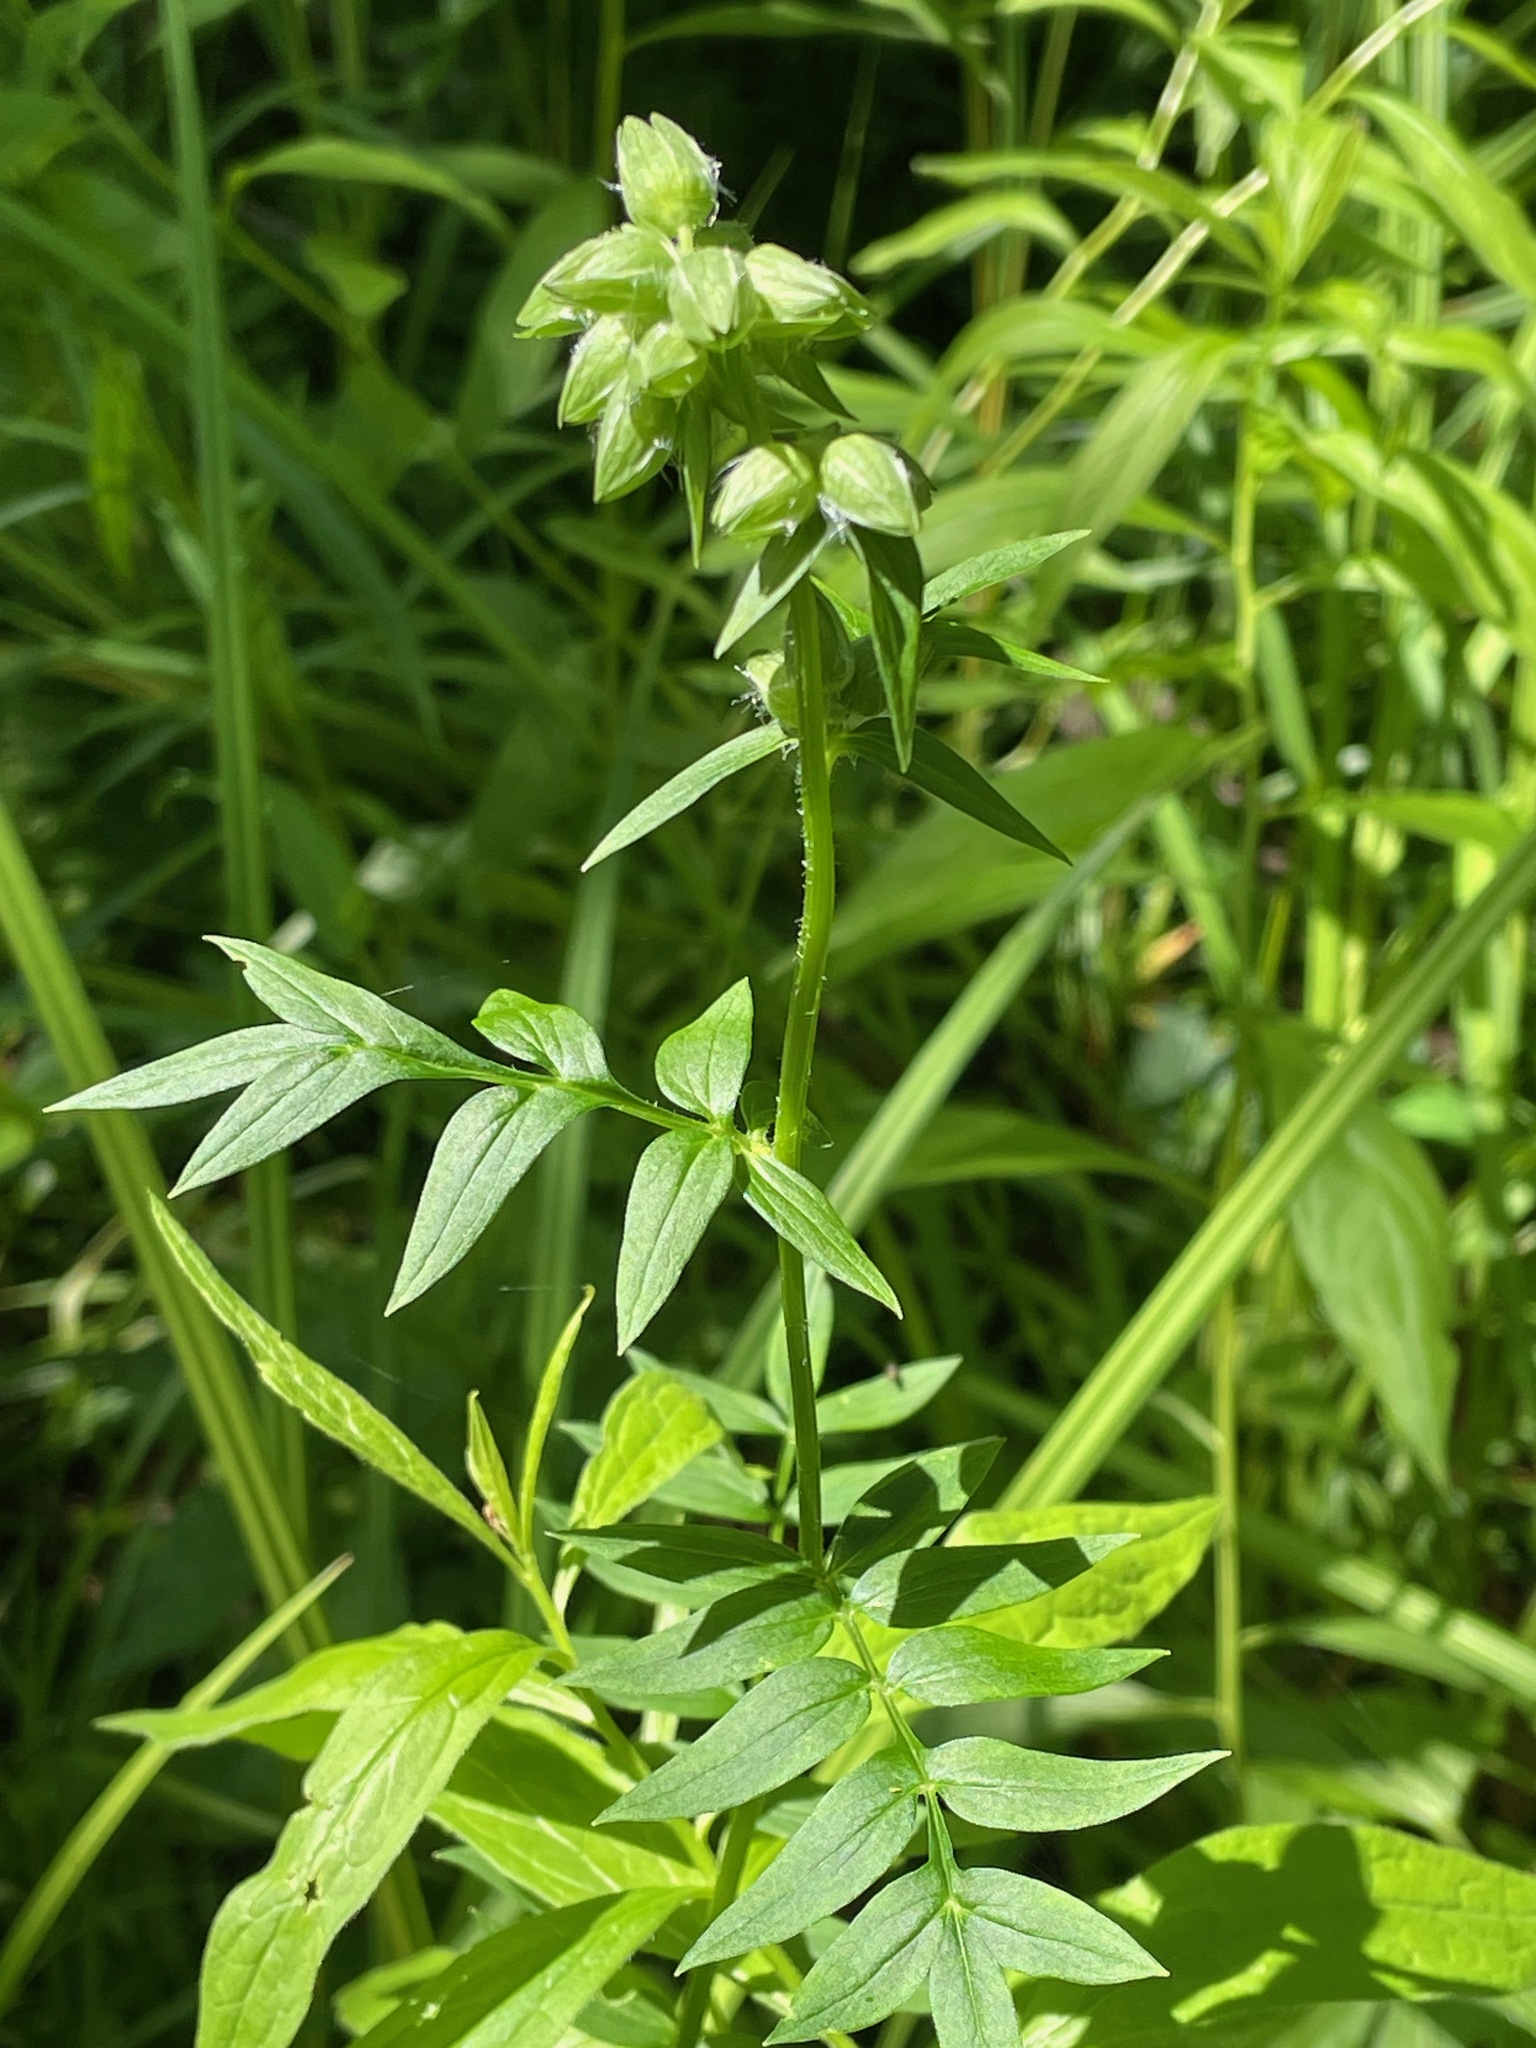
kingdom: Plantae
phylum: Tracheophyta
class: Magnoliopsida
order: Ericales
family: Polemoniaceae
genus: Polemonium
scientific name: Polemonium vanbruntiae
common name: Bog jacob's-ladder
